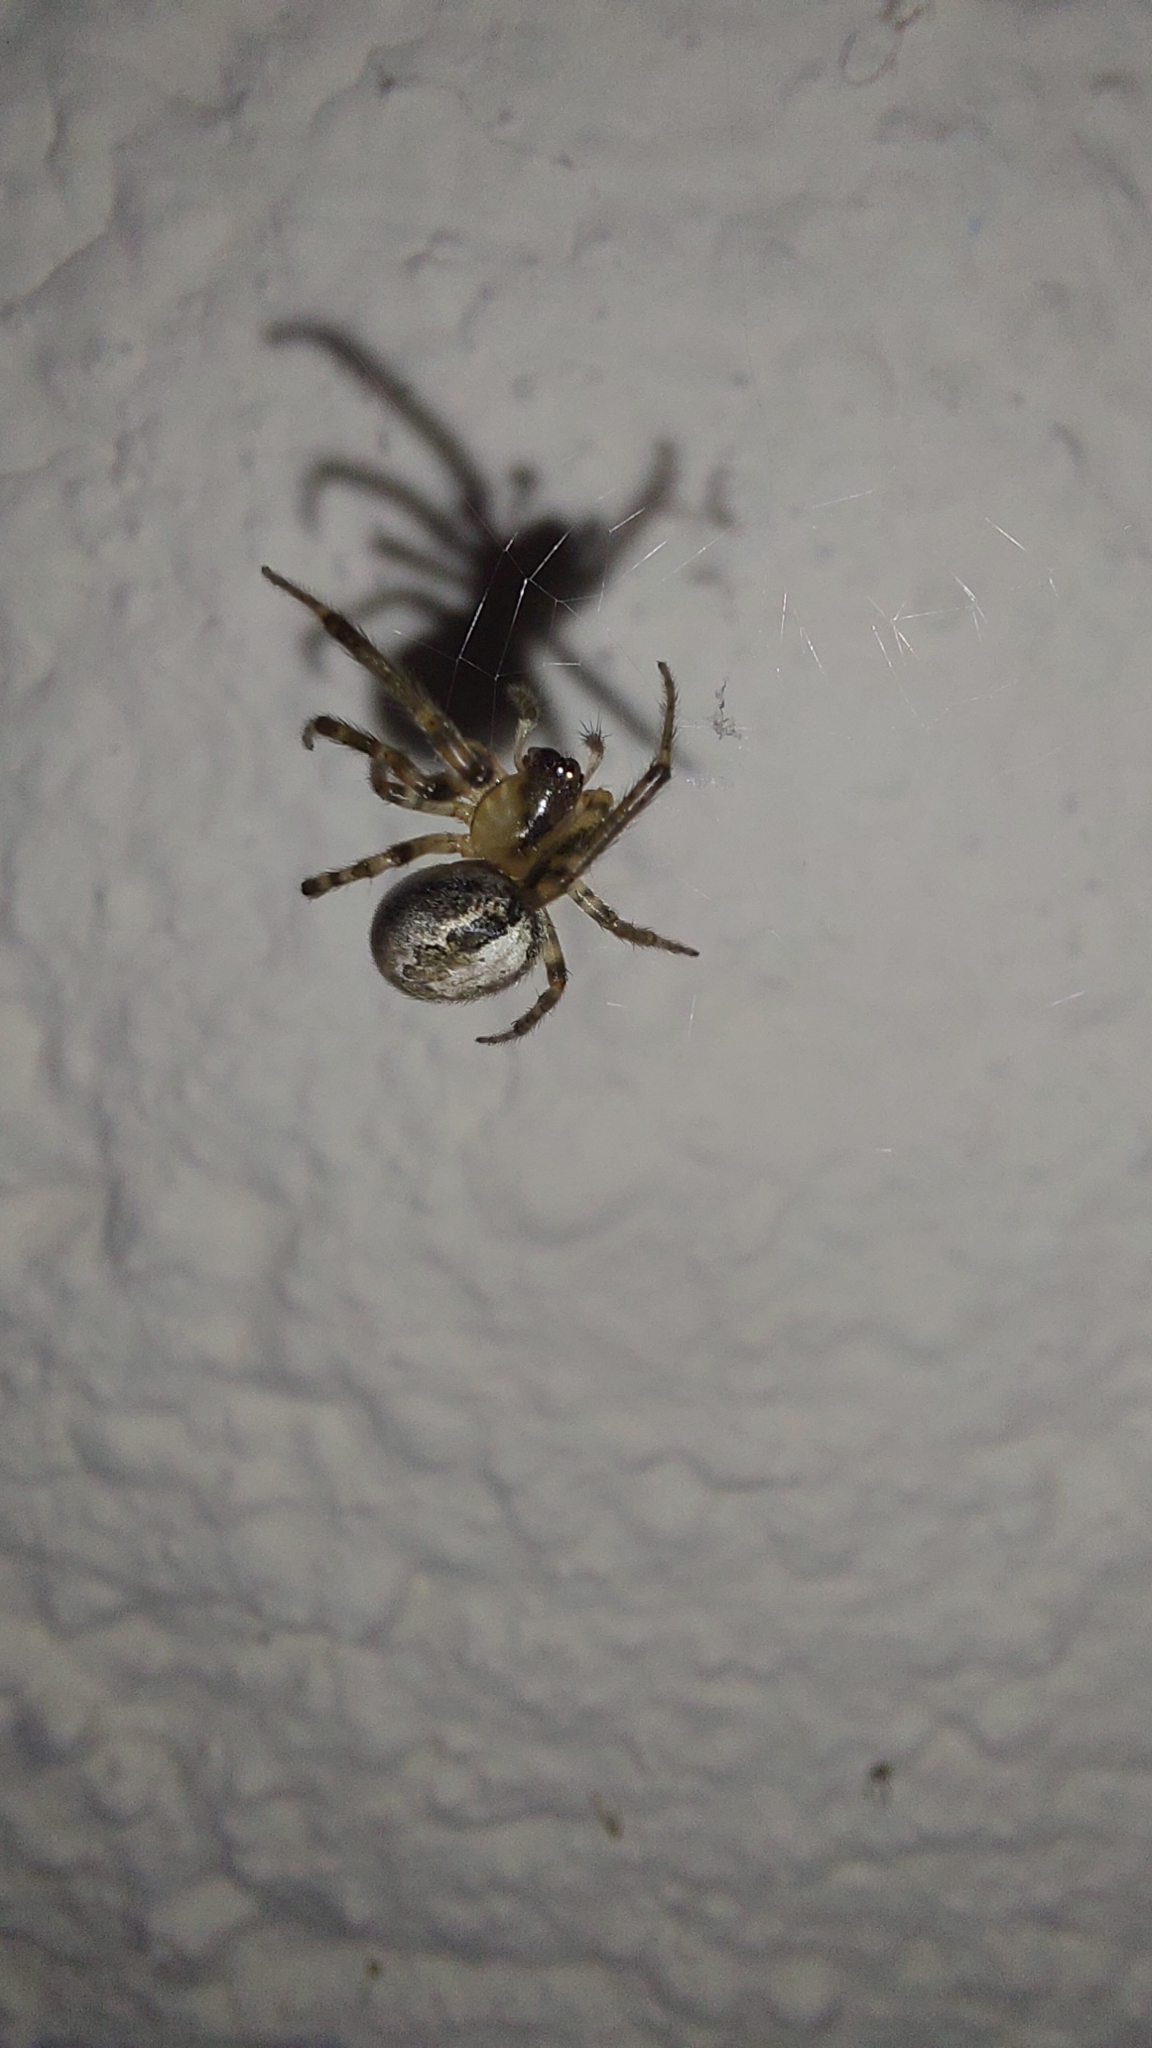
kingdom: Animalia
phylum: Arthropoda
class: Arachnida
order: Araneae
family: Araneidae
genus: Zygiella
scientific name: Zygiella x-notata
